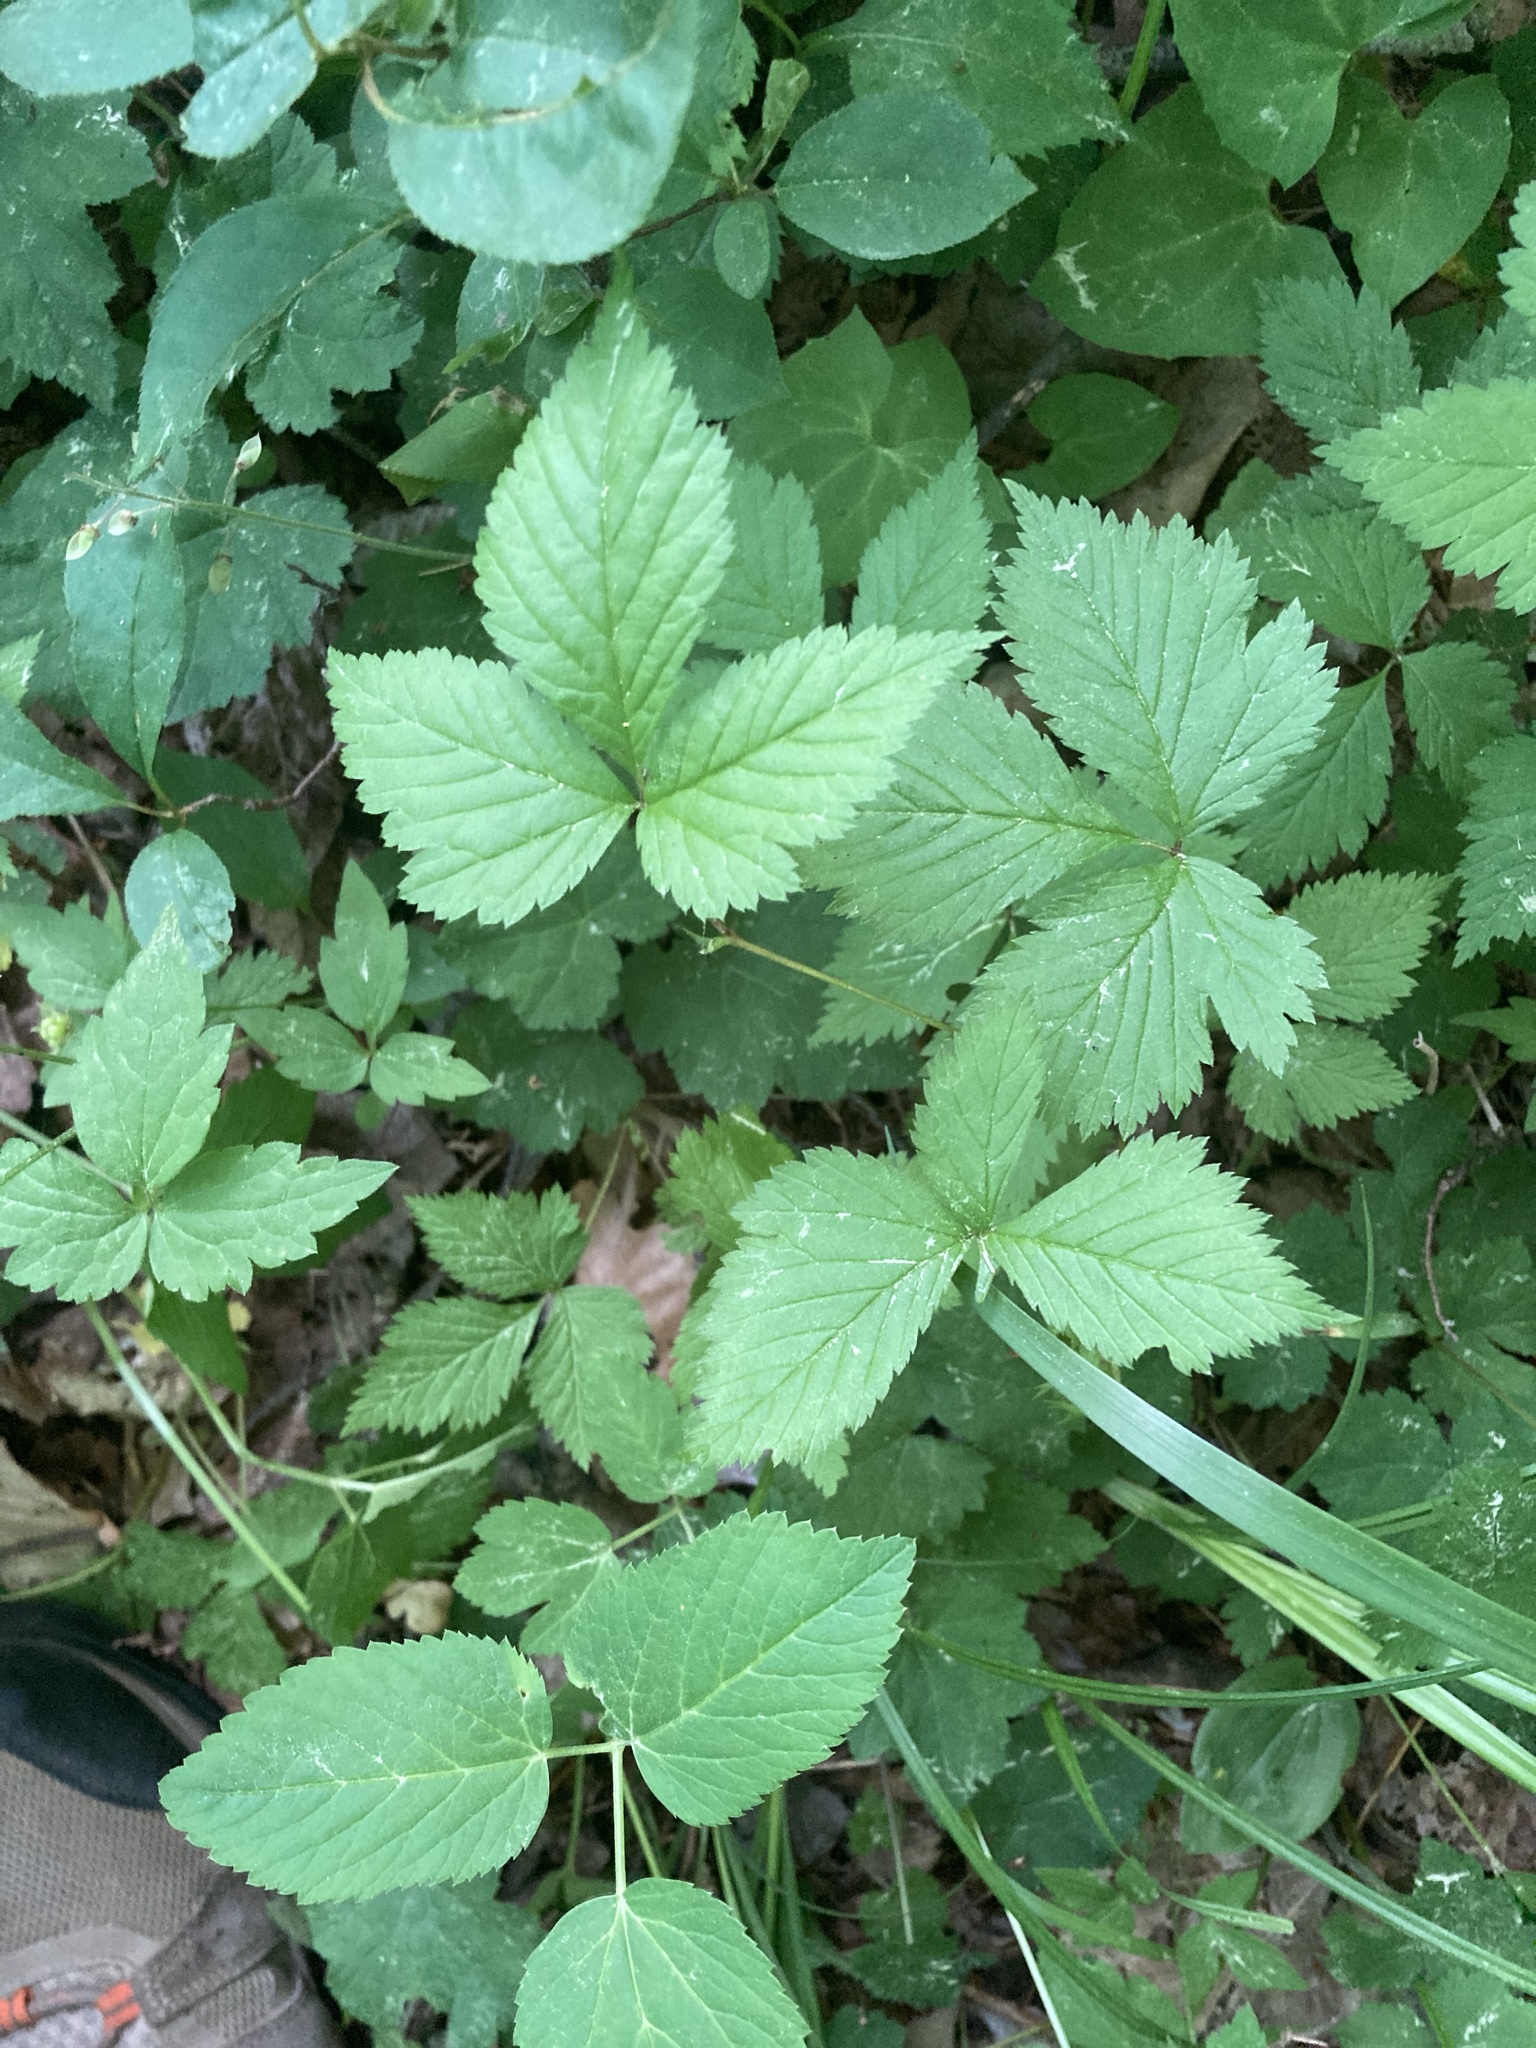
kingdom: Plantae
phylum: Tracheophyta
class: Magnoliopsida
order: Rosales
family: Rosaceae
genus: Rubus
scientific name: Rubus pubescens
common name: Dwarf raspberry
